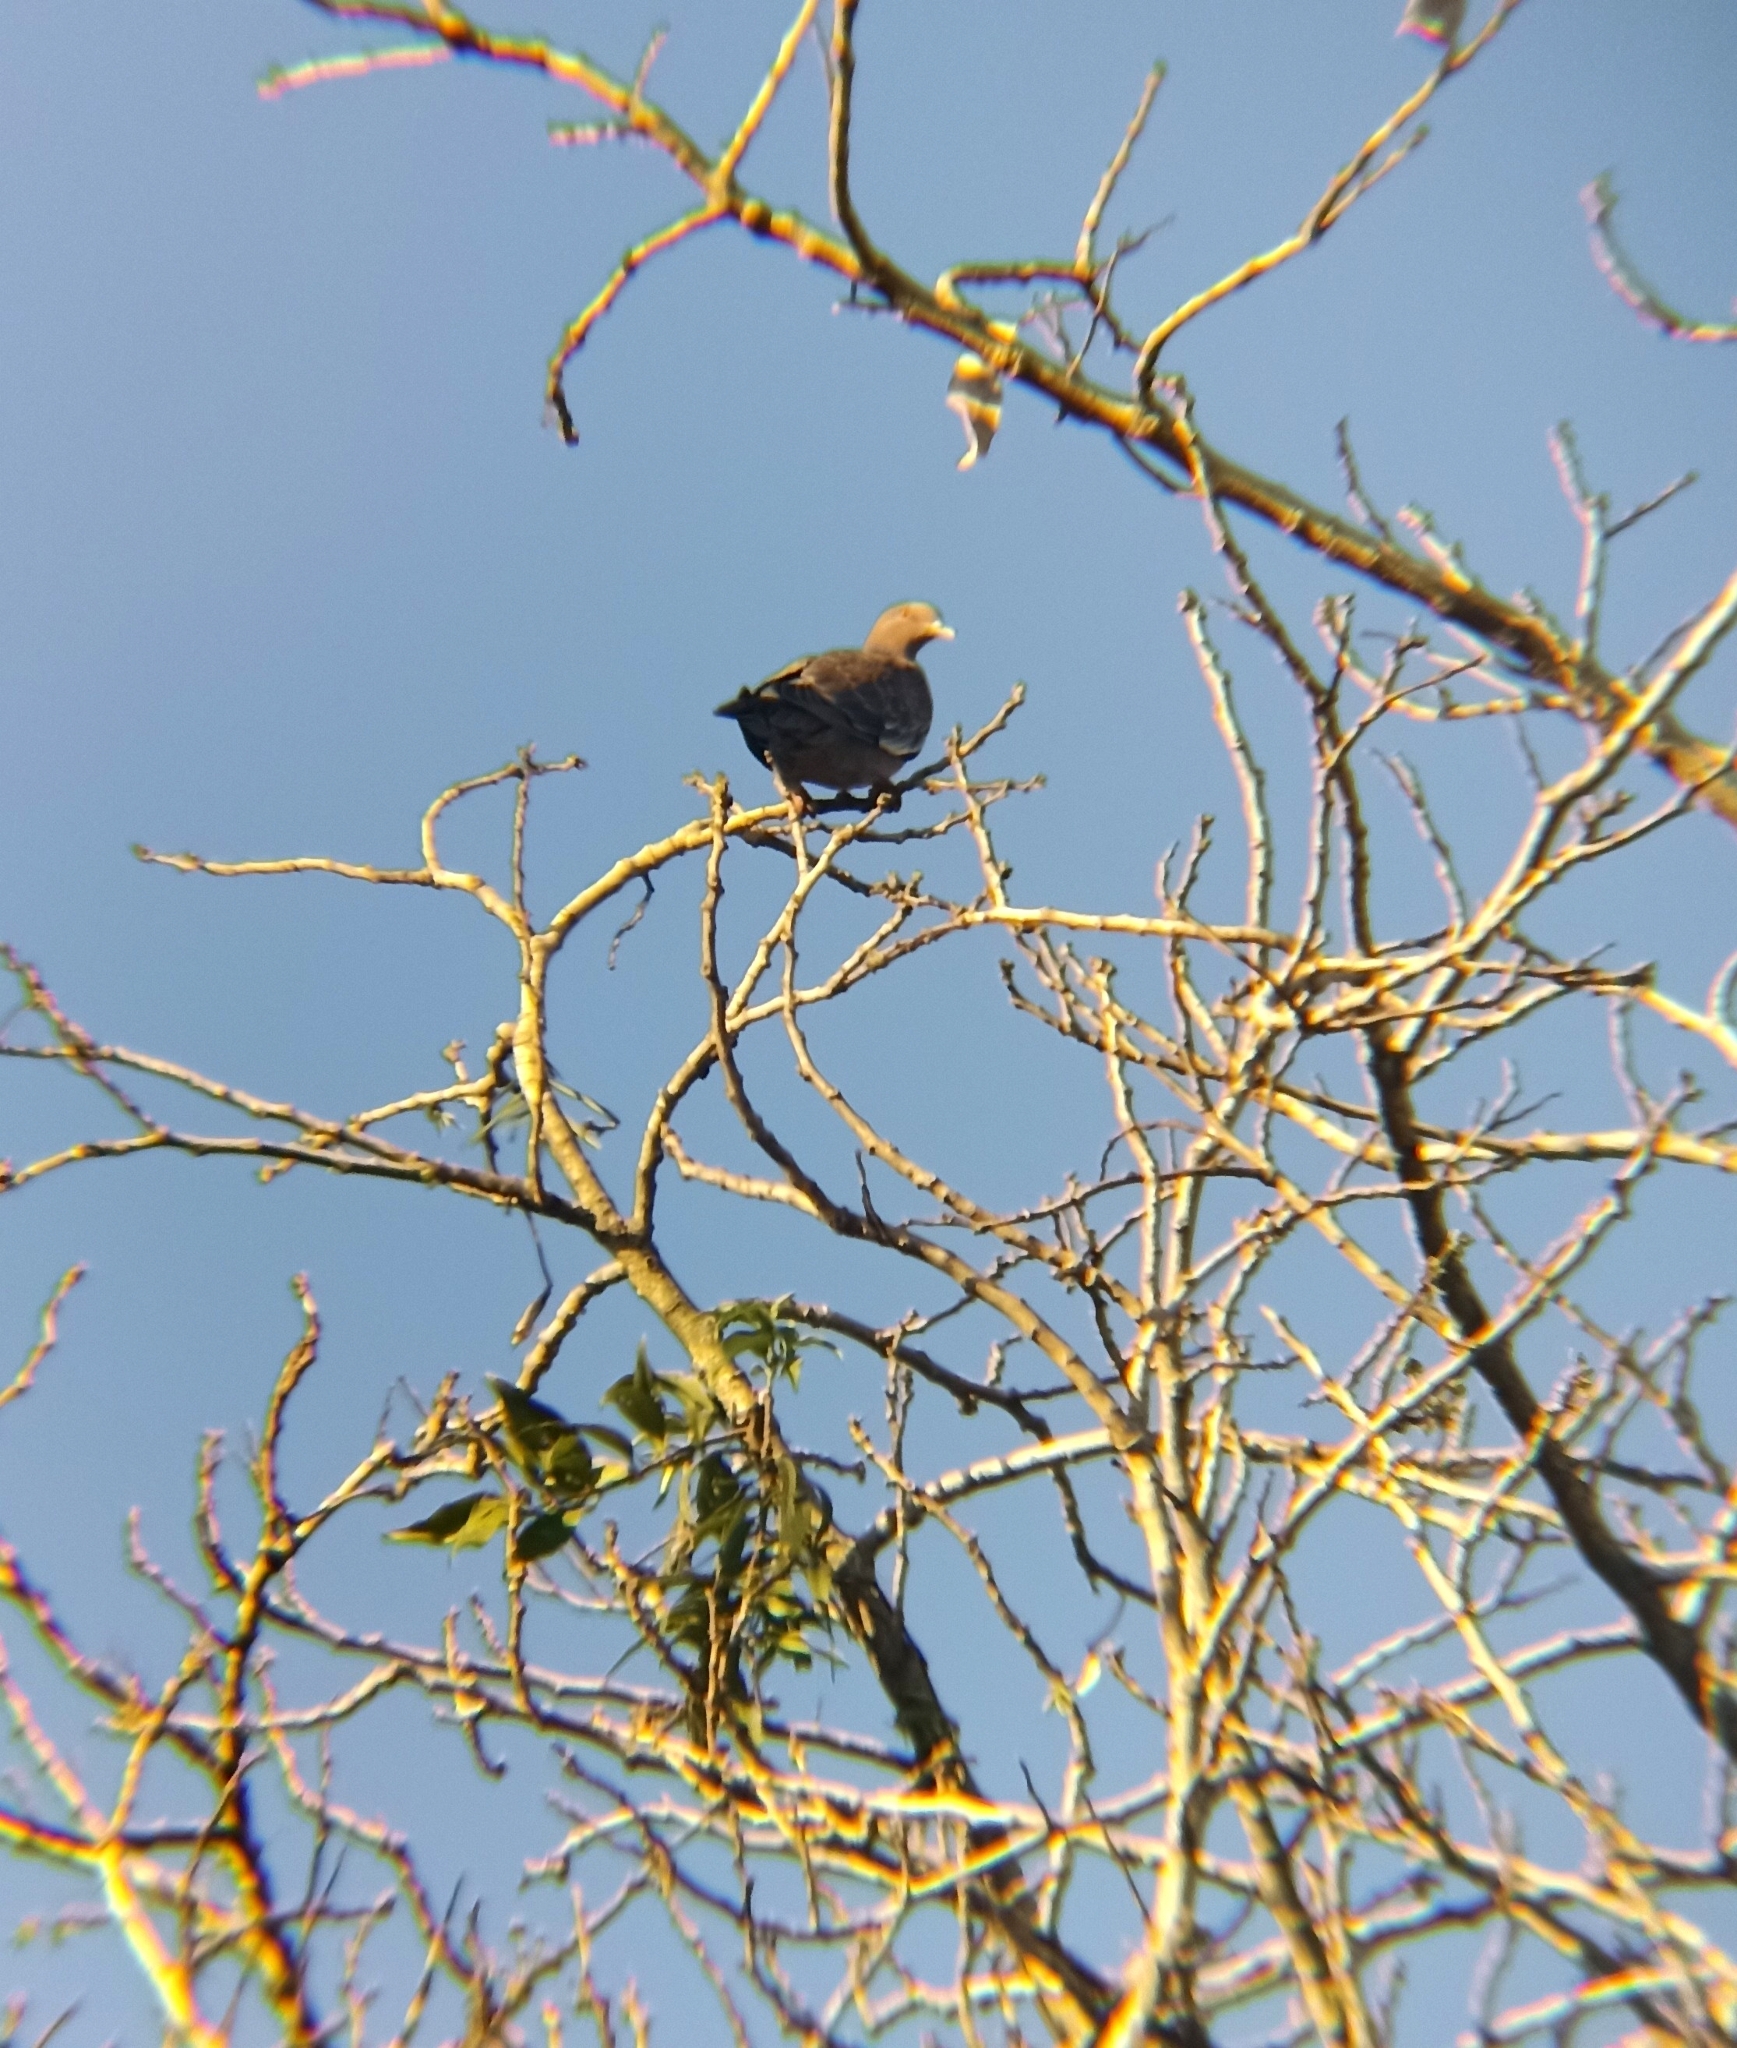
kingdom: Animalia
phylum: Chordata
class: Aves
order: Columbiformes
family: Columbidae
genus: Patagioenas
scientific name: Patagioenas picazuro
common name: Picazuro pigeon
